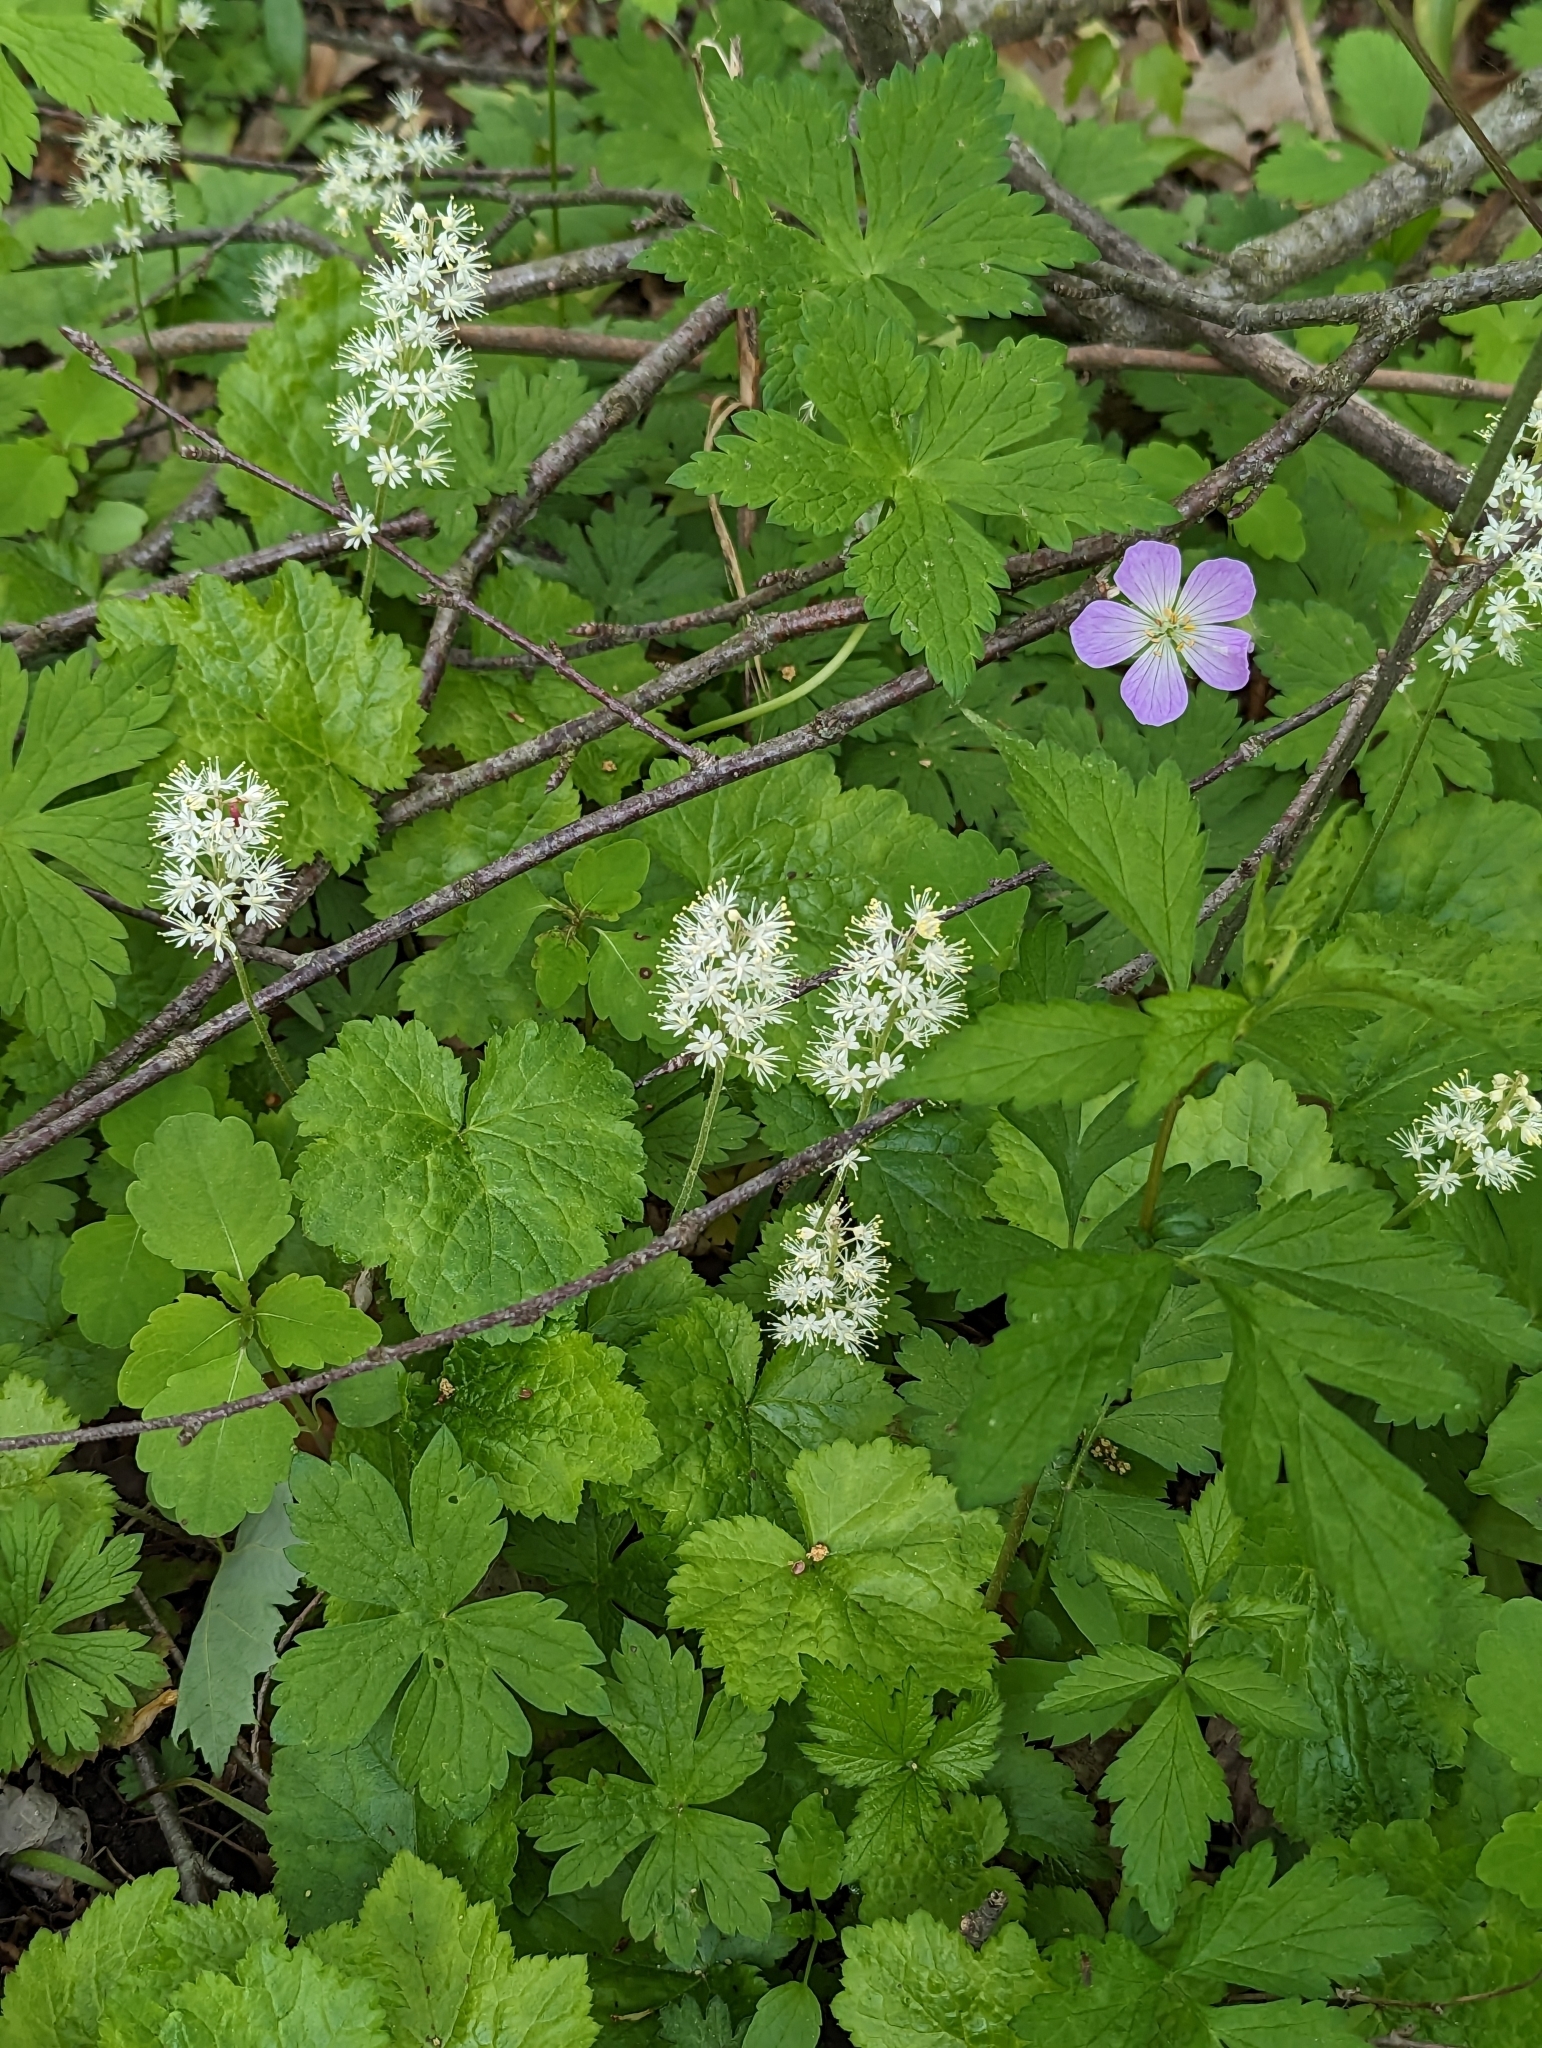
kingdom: Plantae
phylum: Tracheophyta
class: Magnoliopsida
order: Saxifragales
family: Saxifragaceae
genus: Tiarella
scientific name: Tiarella stolonifera
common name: Stoloniferous foamflower
